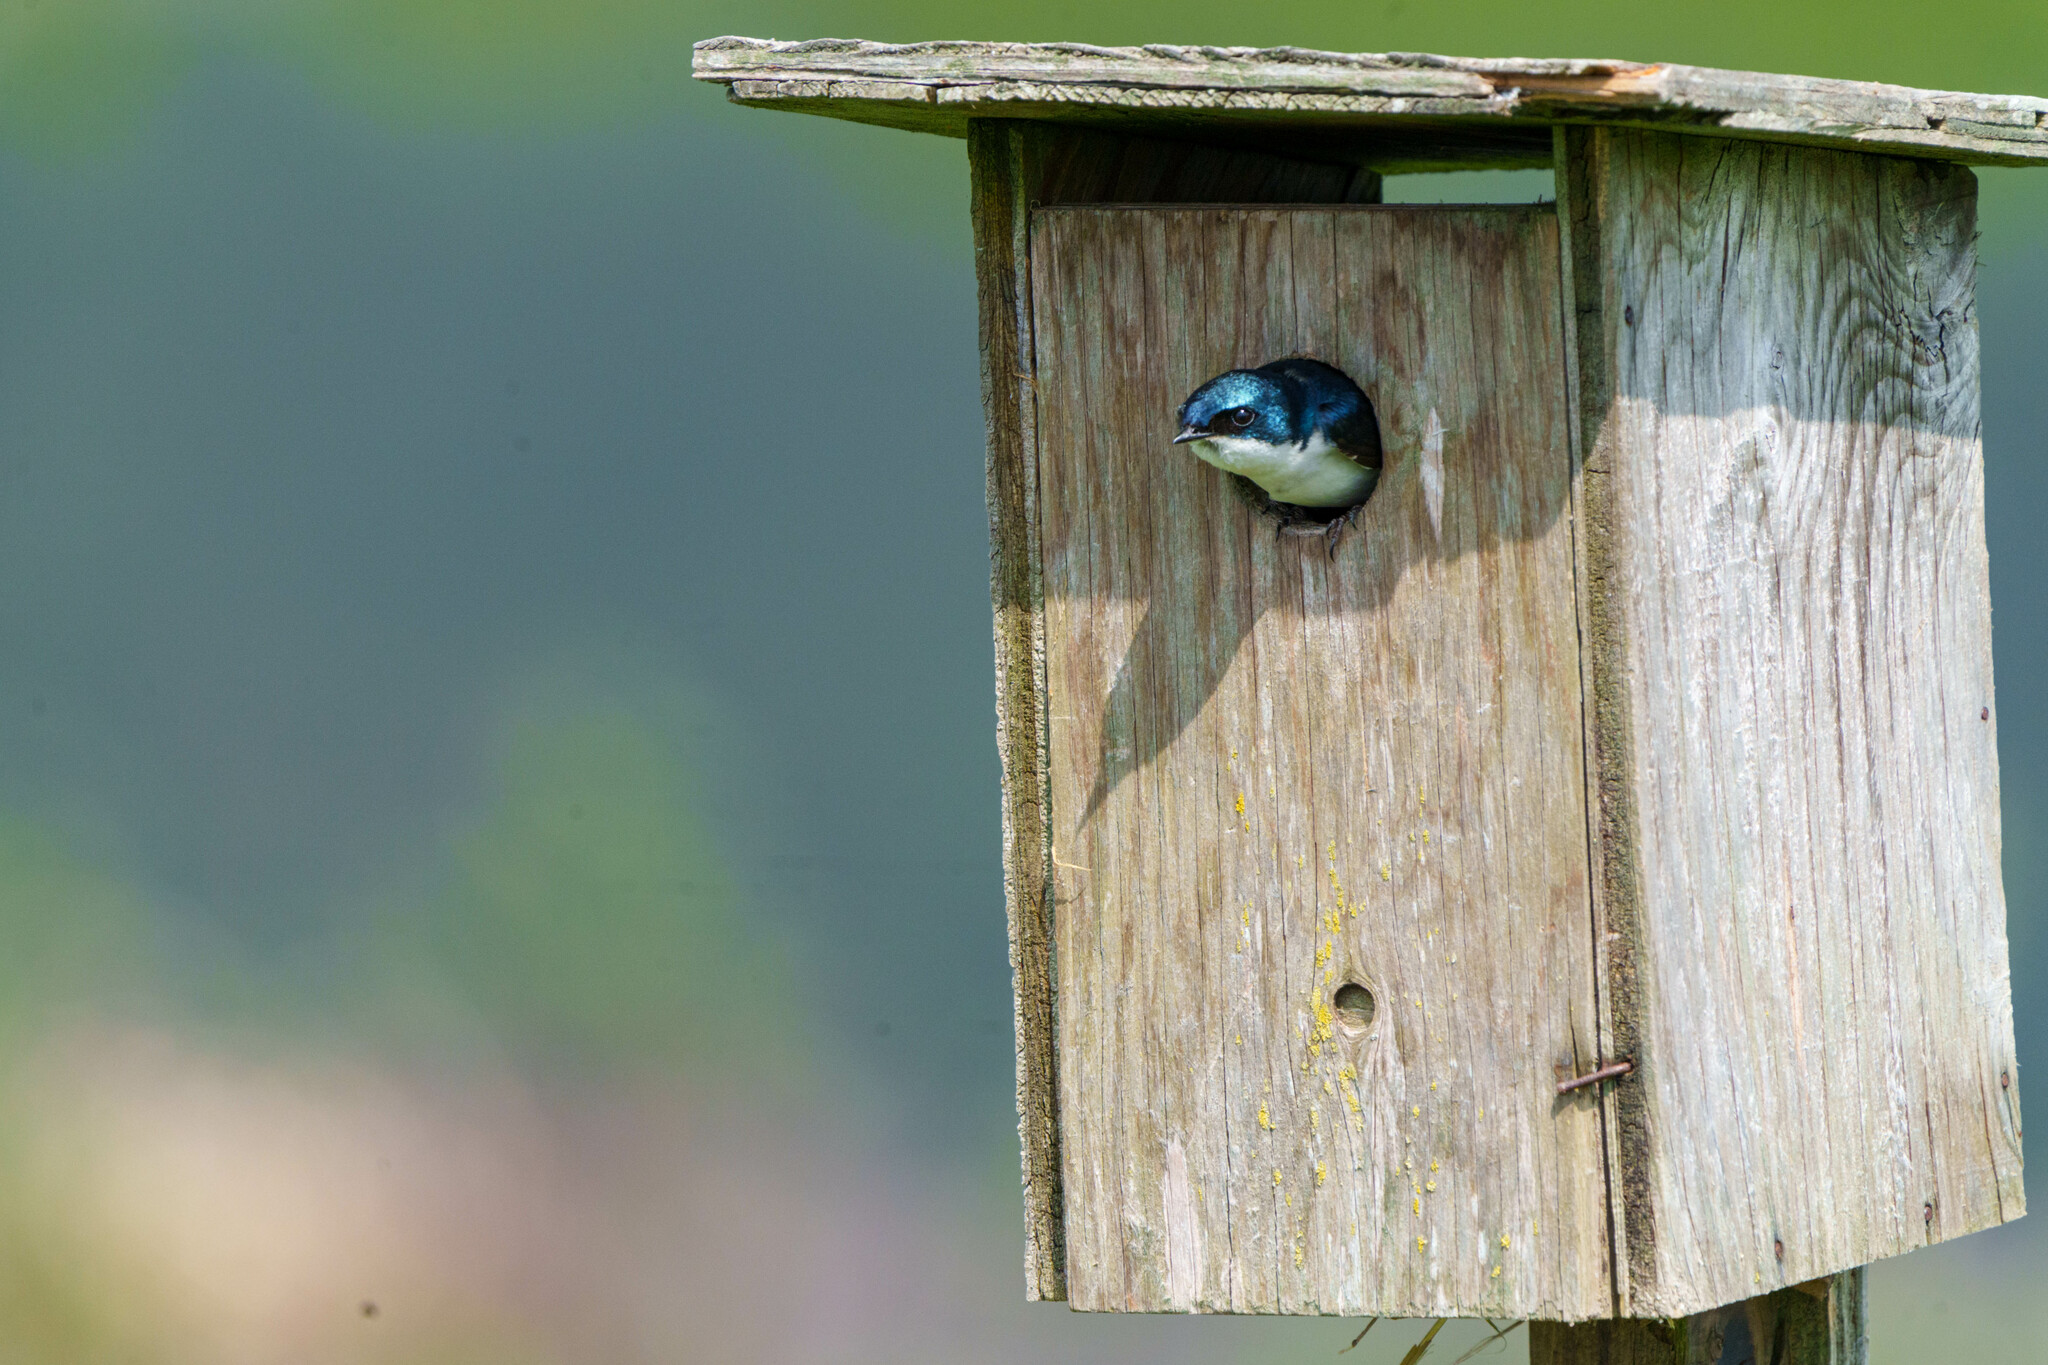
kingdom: Animalia
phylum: Chordata
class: Aves
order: Passeriformes
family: Hirundinidae
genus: Tachycineta
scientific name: Tachycineta bicolor
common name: Tree swallow
